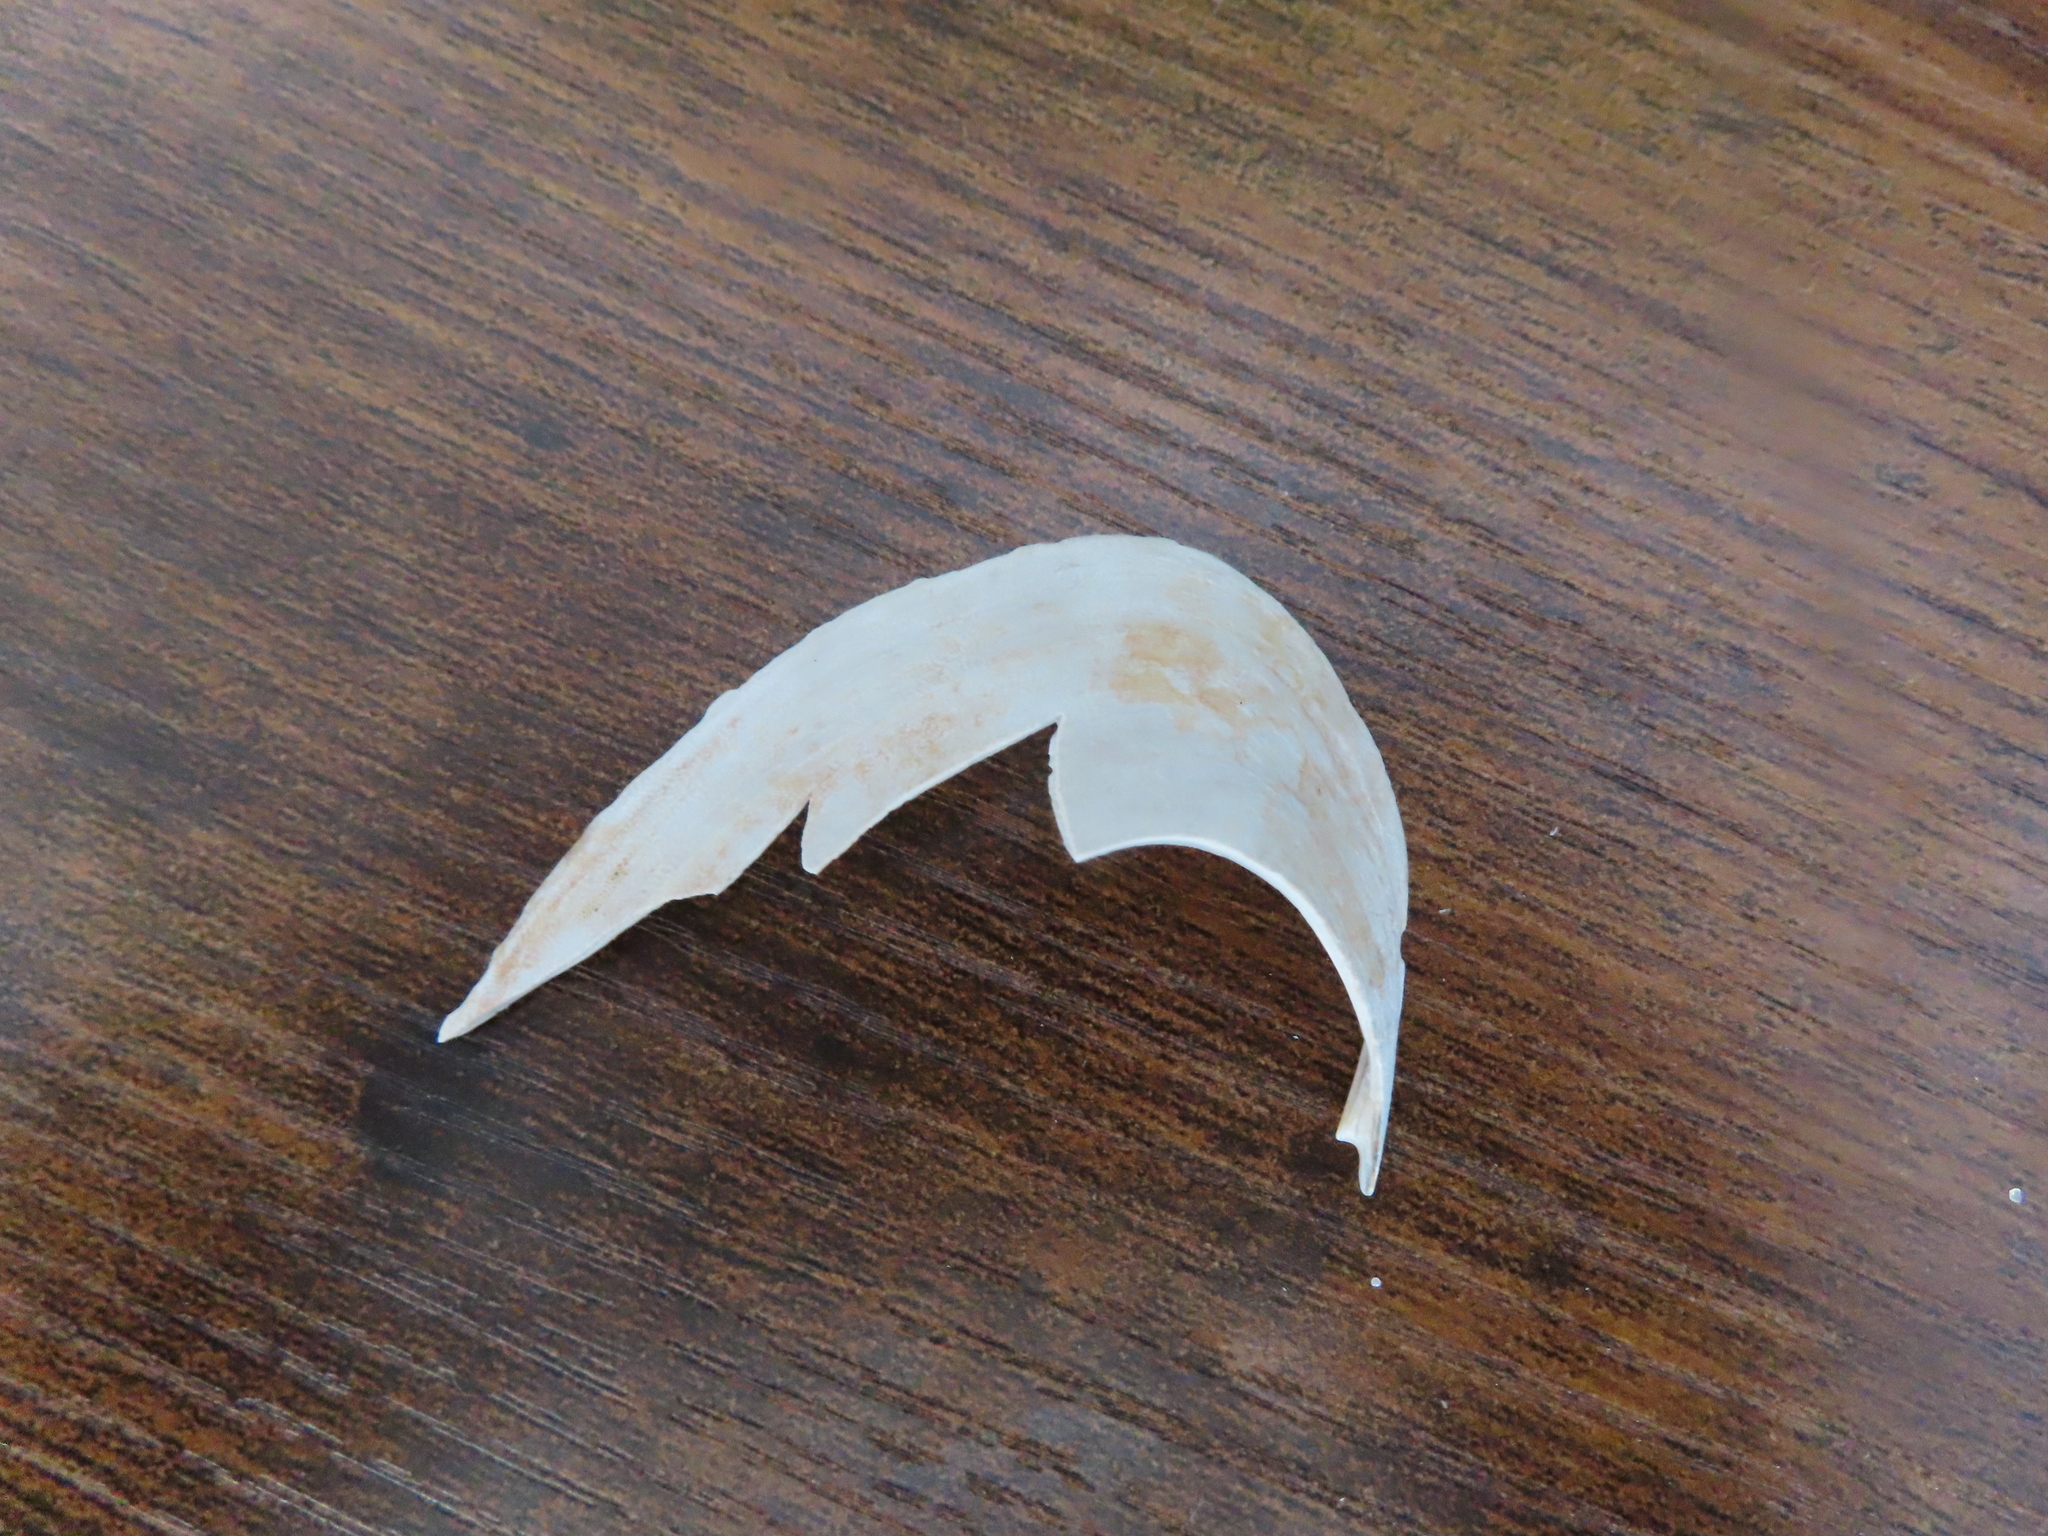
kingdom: Animalia
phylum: Mollusca
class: Bivalvia
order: Venerida
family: Mactridae
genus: Spisula
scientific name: Spisula solidissima
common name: Atlantic surf clam
